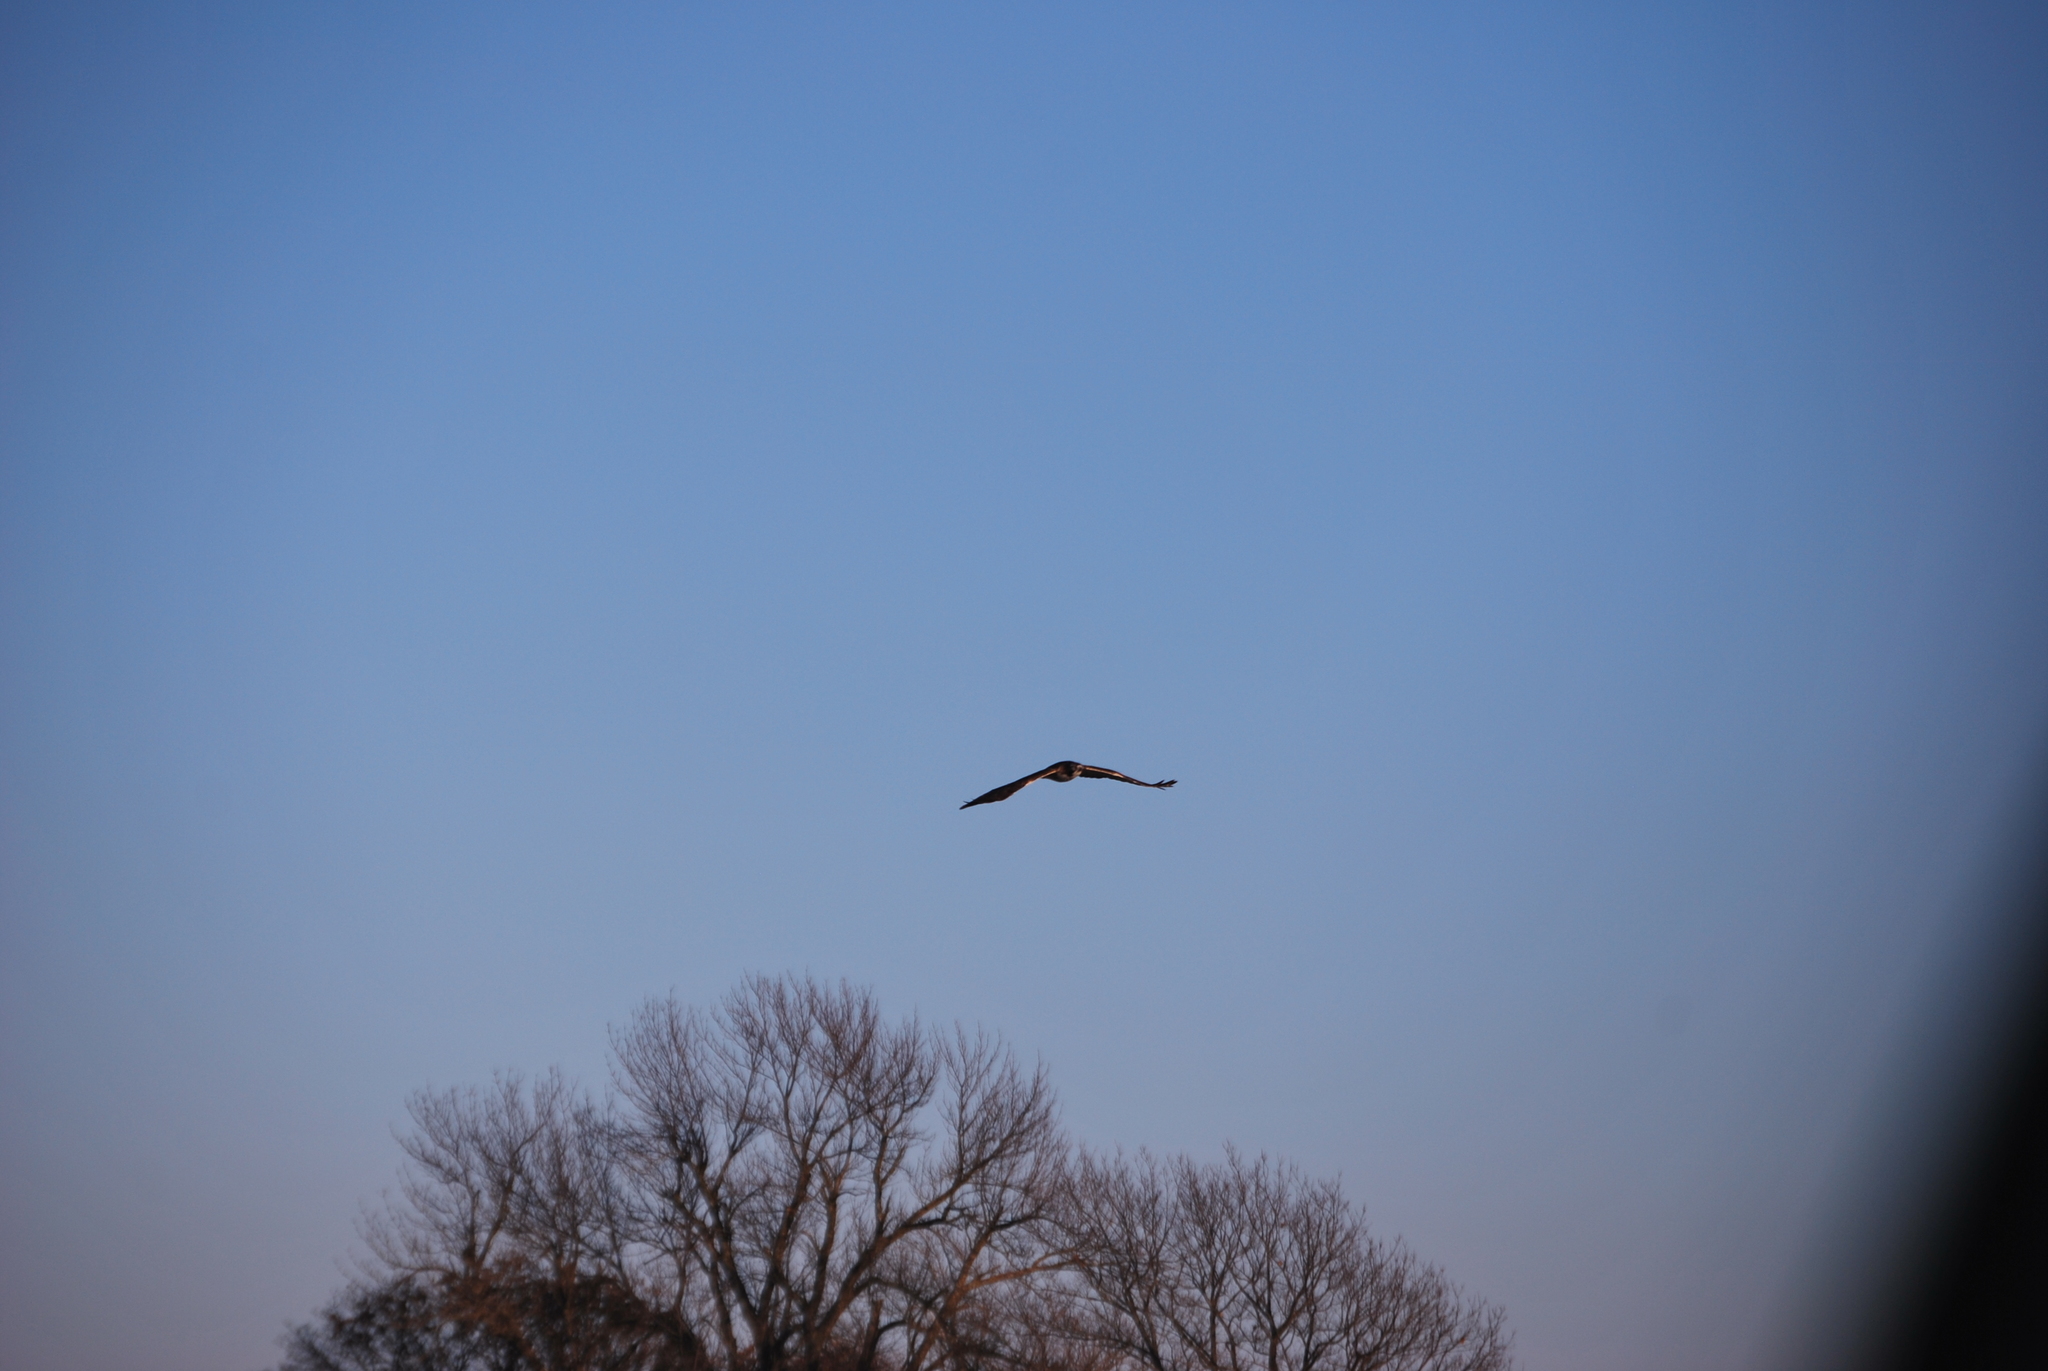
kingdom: Animalia
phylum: Chordata
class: Aves
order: Accipitriformes
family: Accipitridae
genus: Buteo
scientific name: Buteo jamaicensis
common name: Red-tailed hawk
